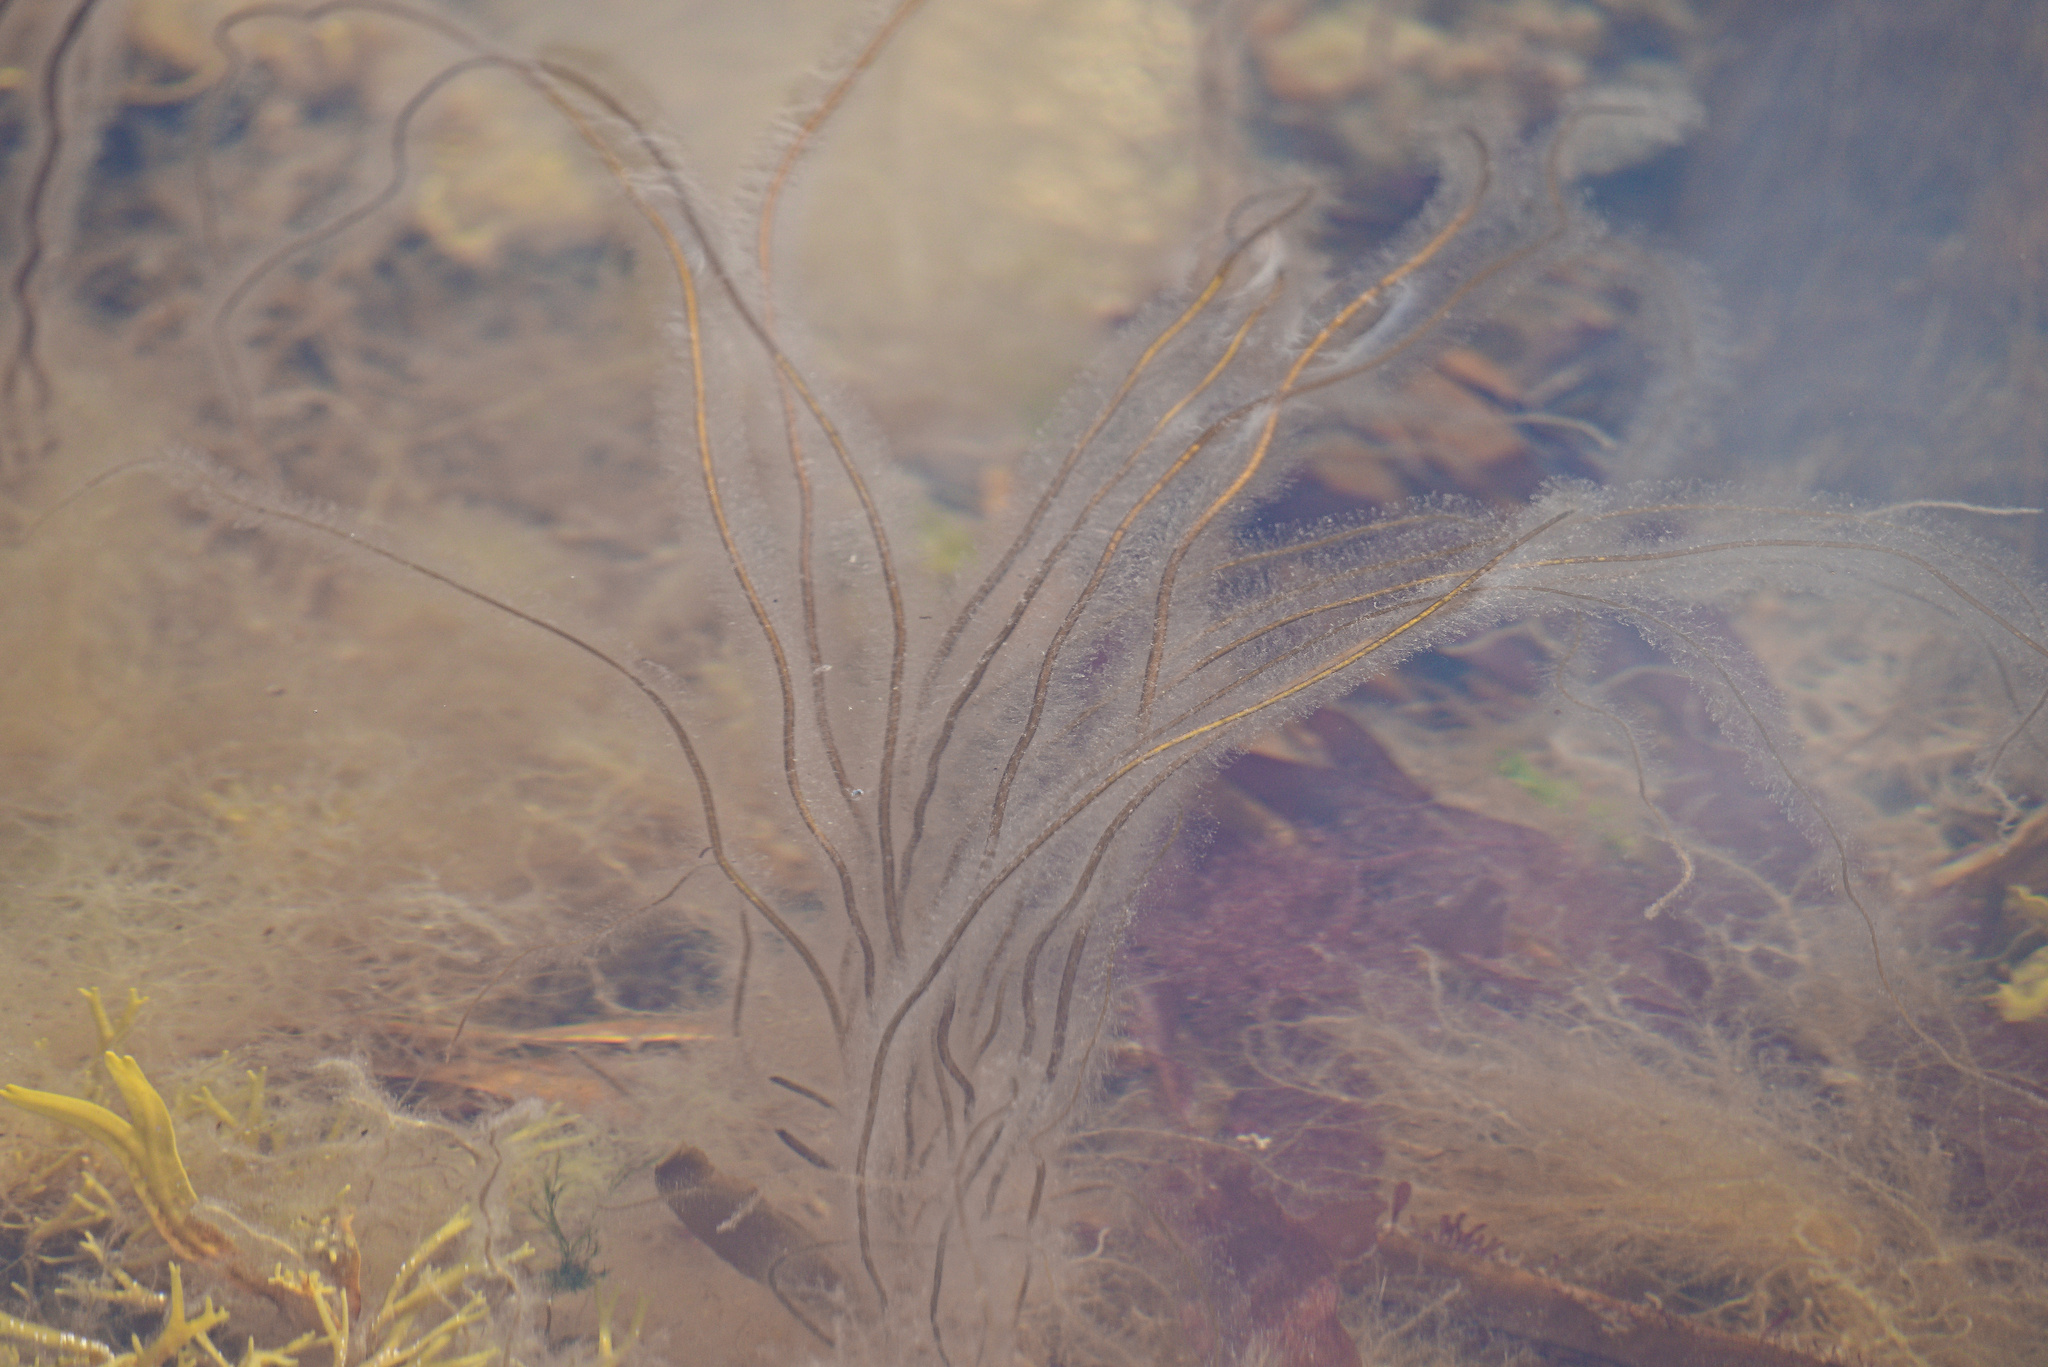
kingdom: Chromista
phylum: Ochrophyta
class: Phaeophyceae
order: Laminariales
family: Chordaceae
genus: Chorda
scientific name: Chorda filum
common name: Mermaid's tresses
